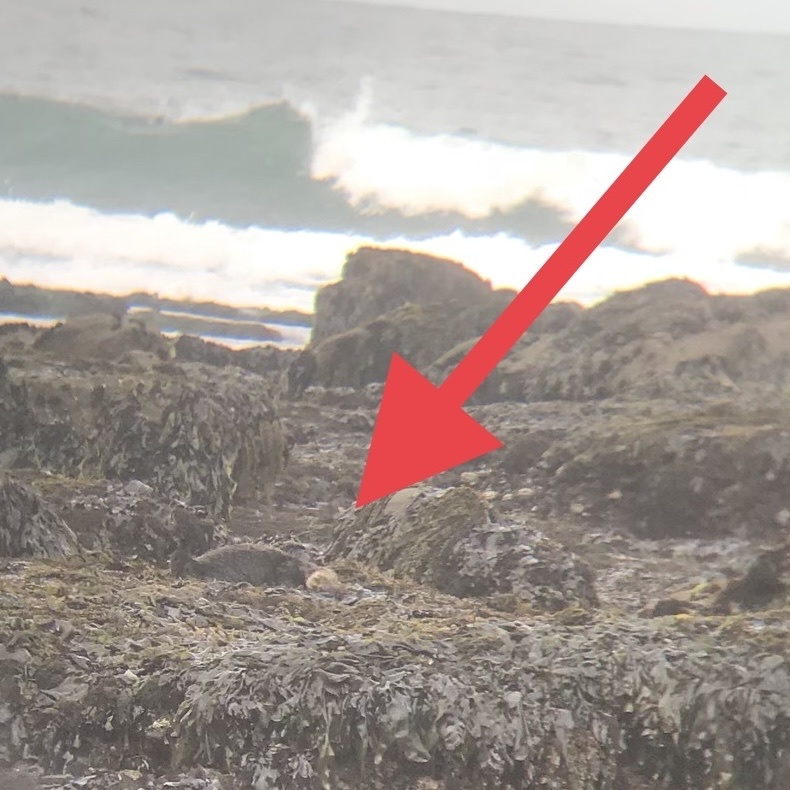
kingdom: Animalia
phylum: Chordata
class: Mammalia
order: Carnivora
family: Mustelidae
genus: Enhydra
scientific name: Enhydra lutris
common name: Sea otter
